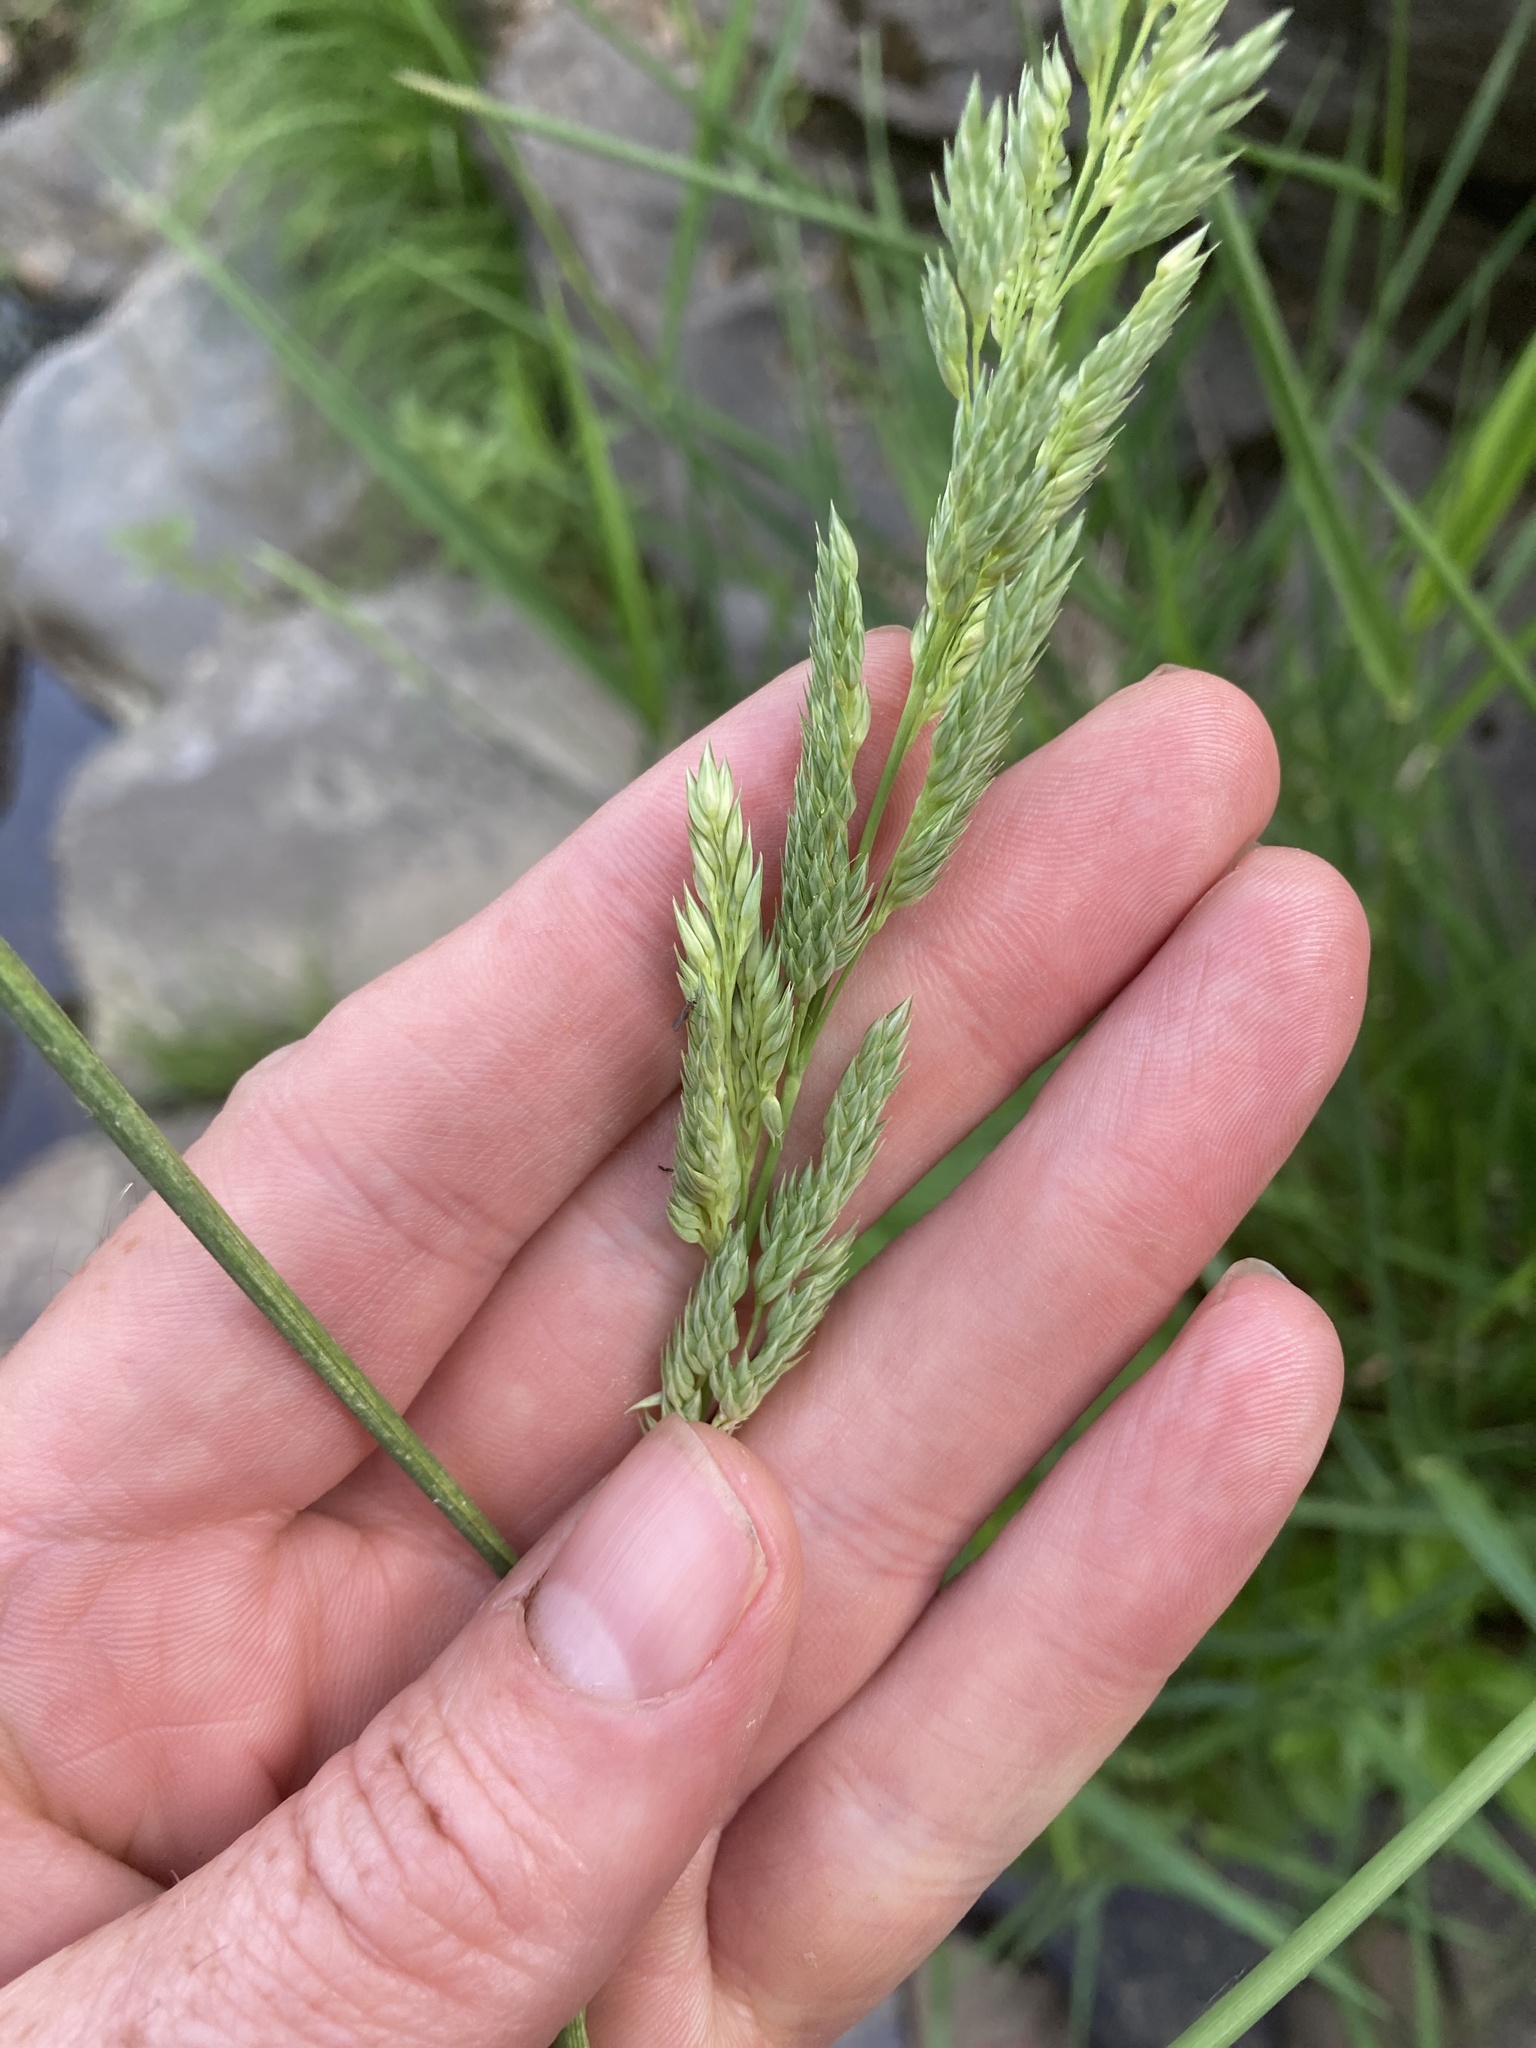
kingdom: Plantae
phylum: Tracheophyta
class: Liliopsida
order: Poales
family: Poaceae
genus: Phalaris
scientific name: Phalaris arundinacea
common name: Reed canary-grass
